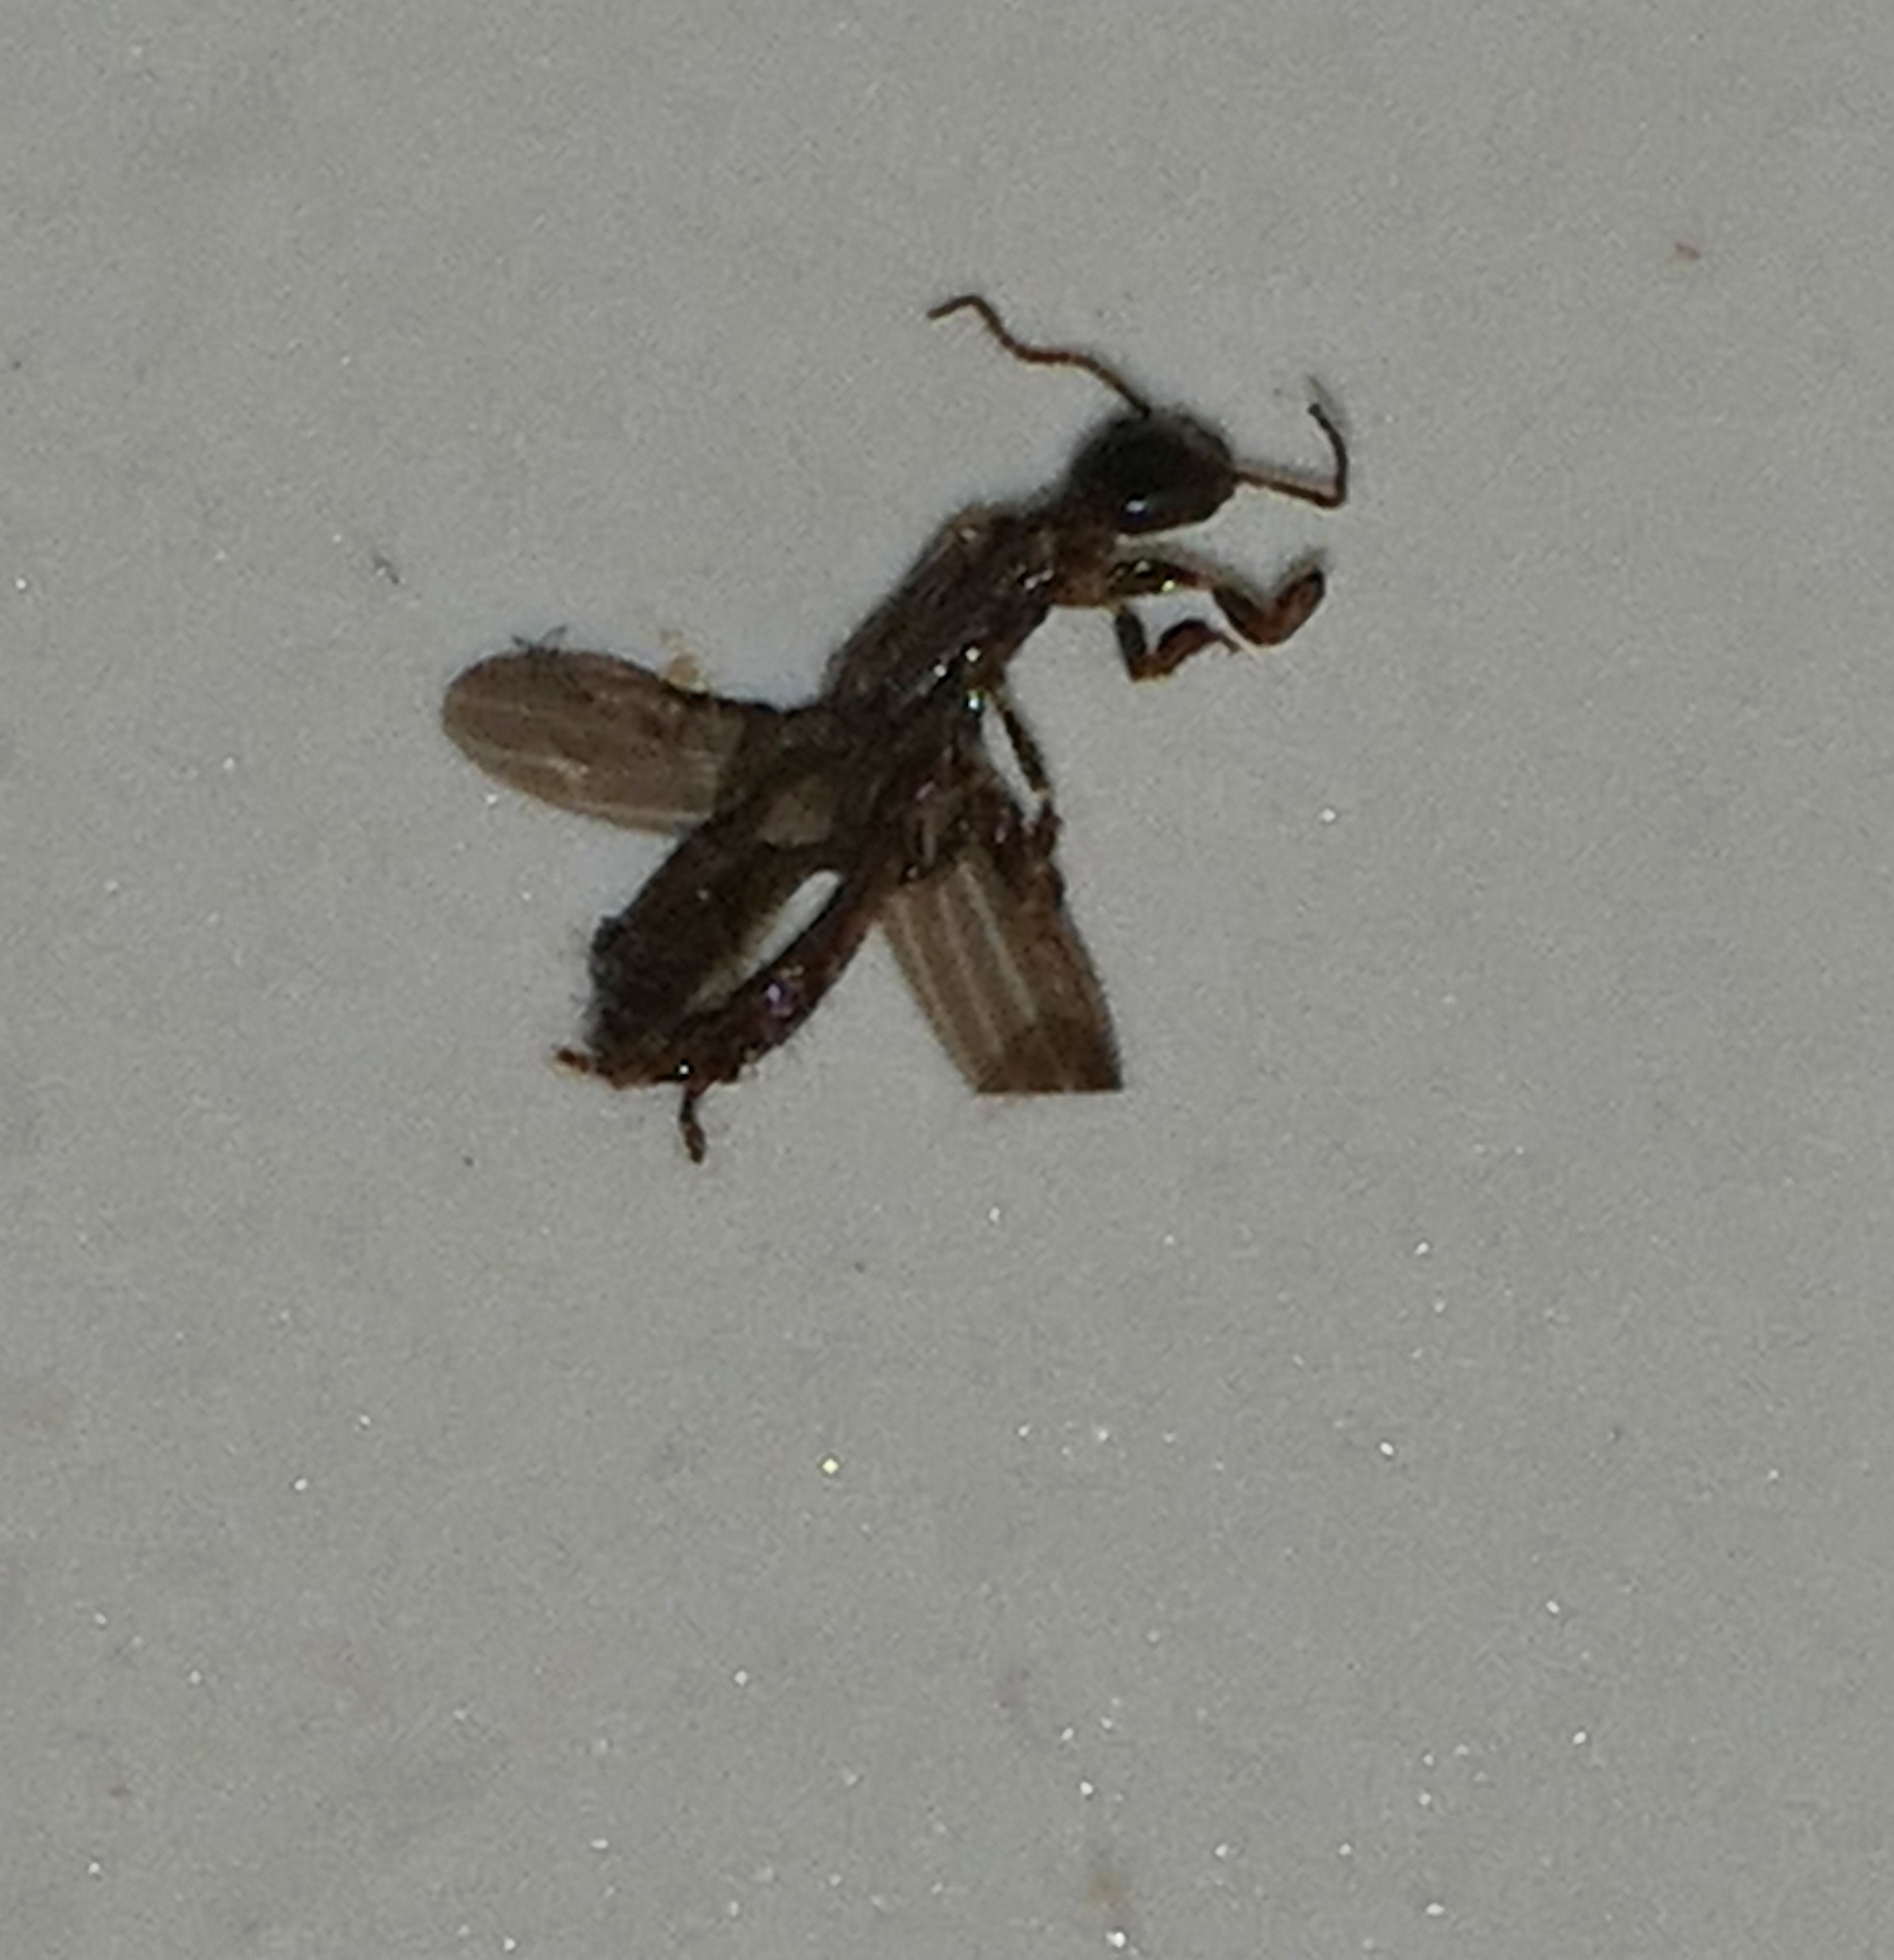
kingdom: Animalia
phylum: Arthropoda
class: Insecta
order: Embioptera
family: Oligotomidae
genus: Oligotoma
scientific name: Oligotoma nigra
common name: Black webspinner
